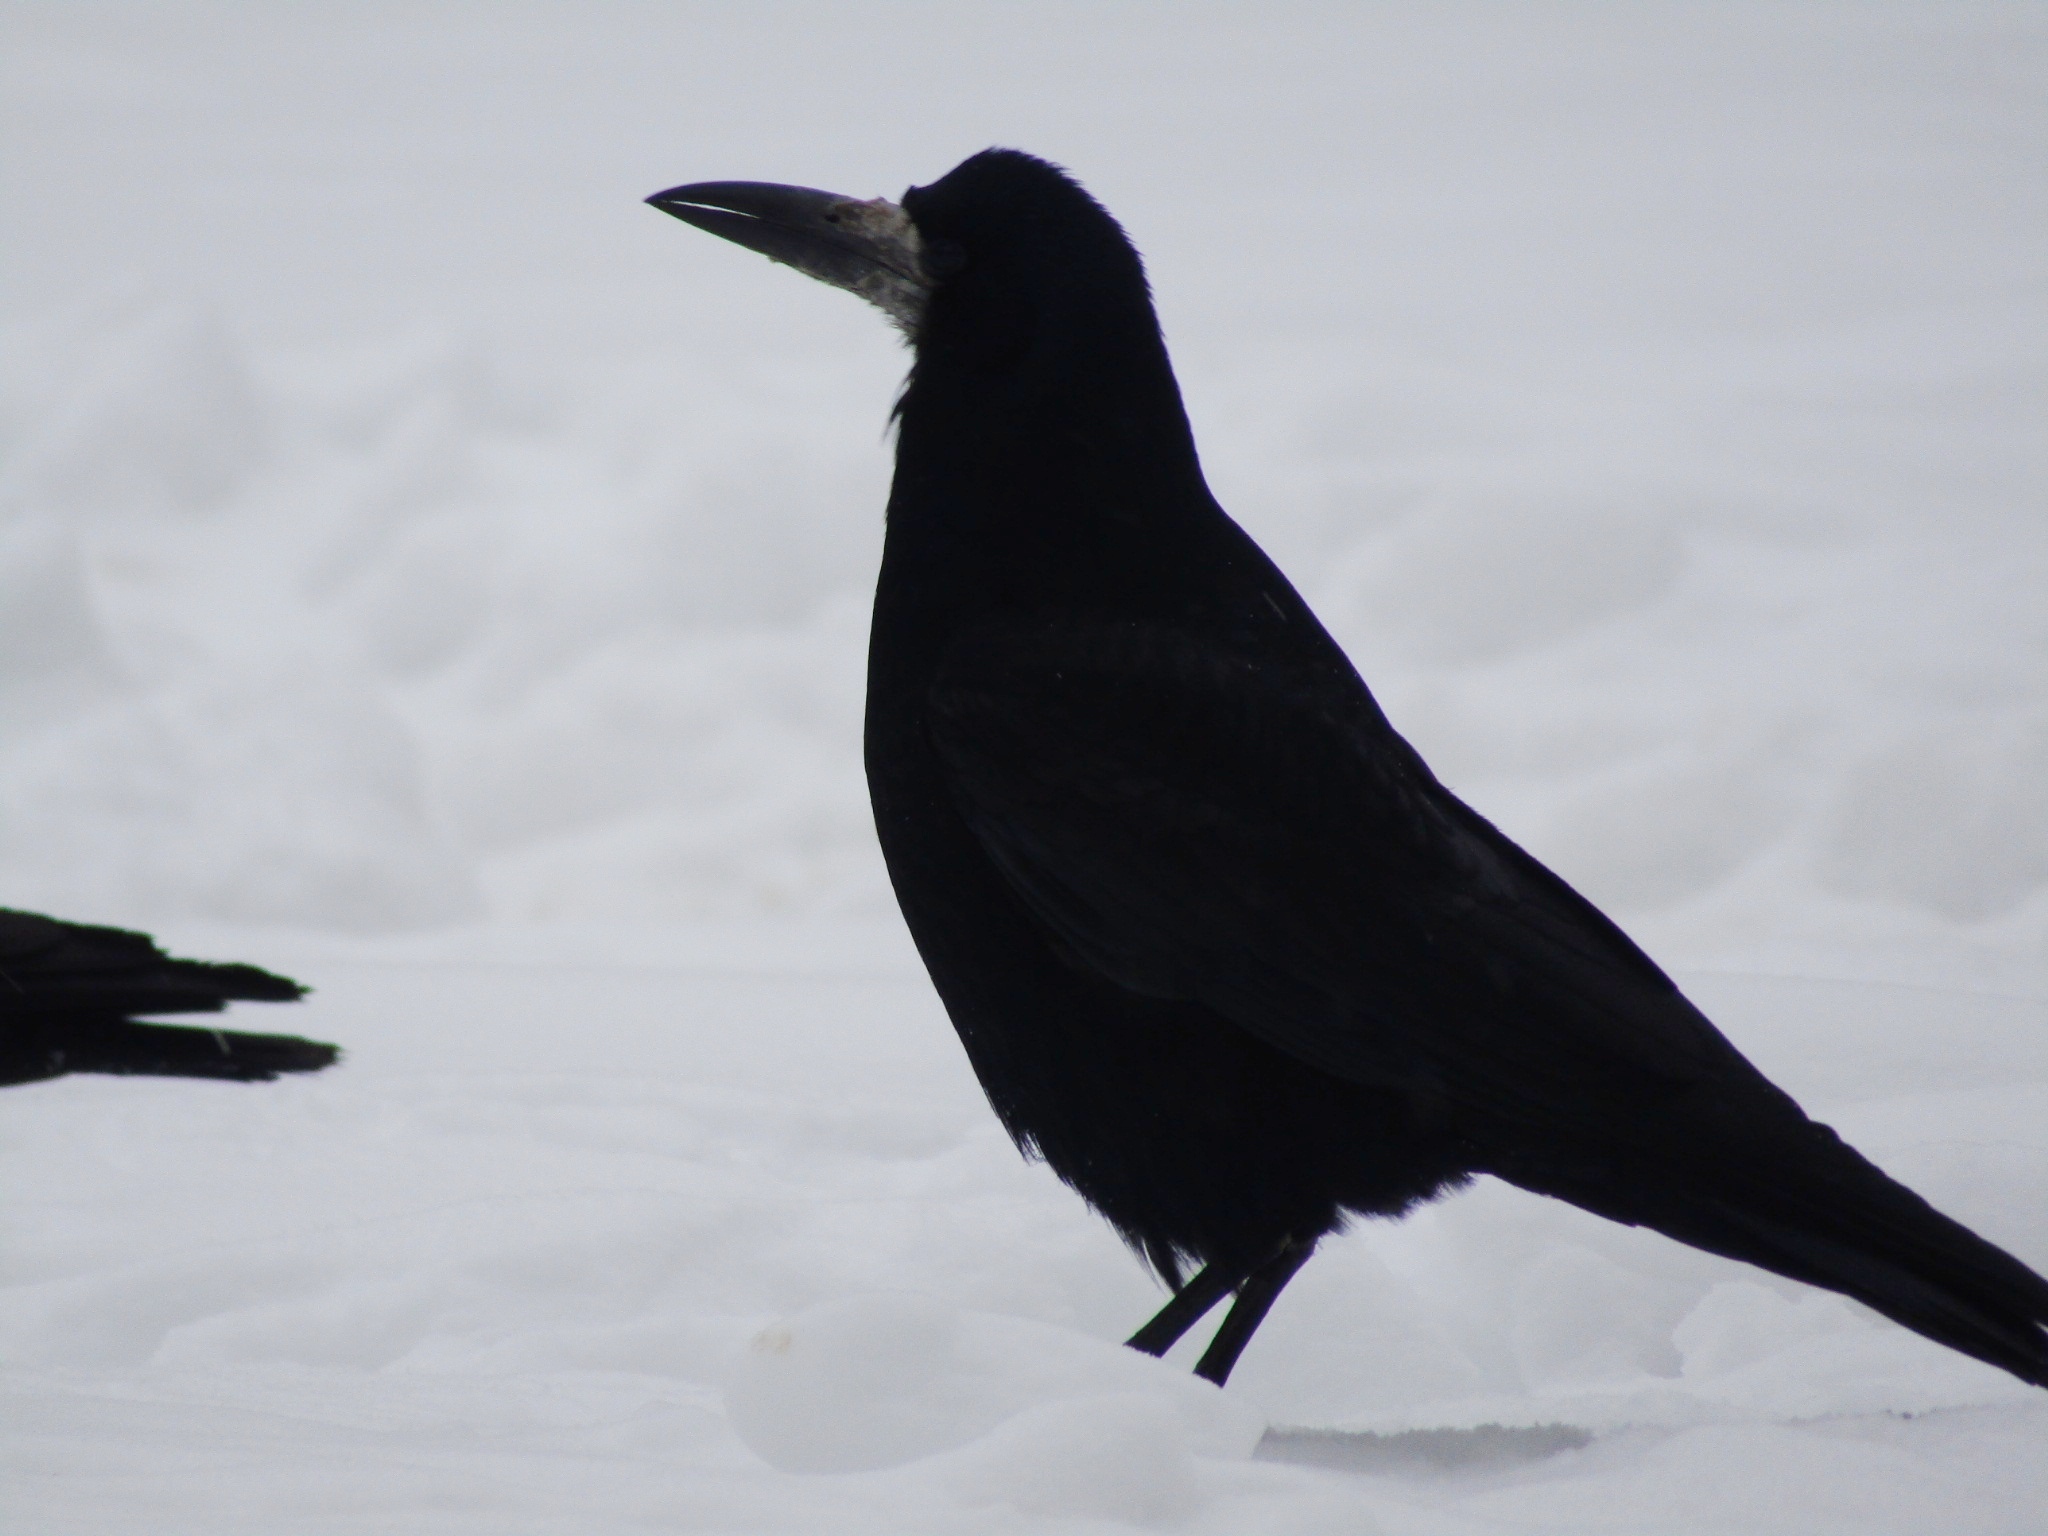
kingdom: Animalia
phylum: Chordata
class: Aves
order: Passeriformes
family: Corvidae
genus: Corvus
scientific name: Corvus frugilegus
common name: Rook
